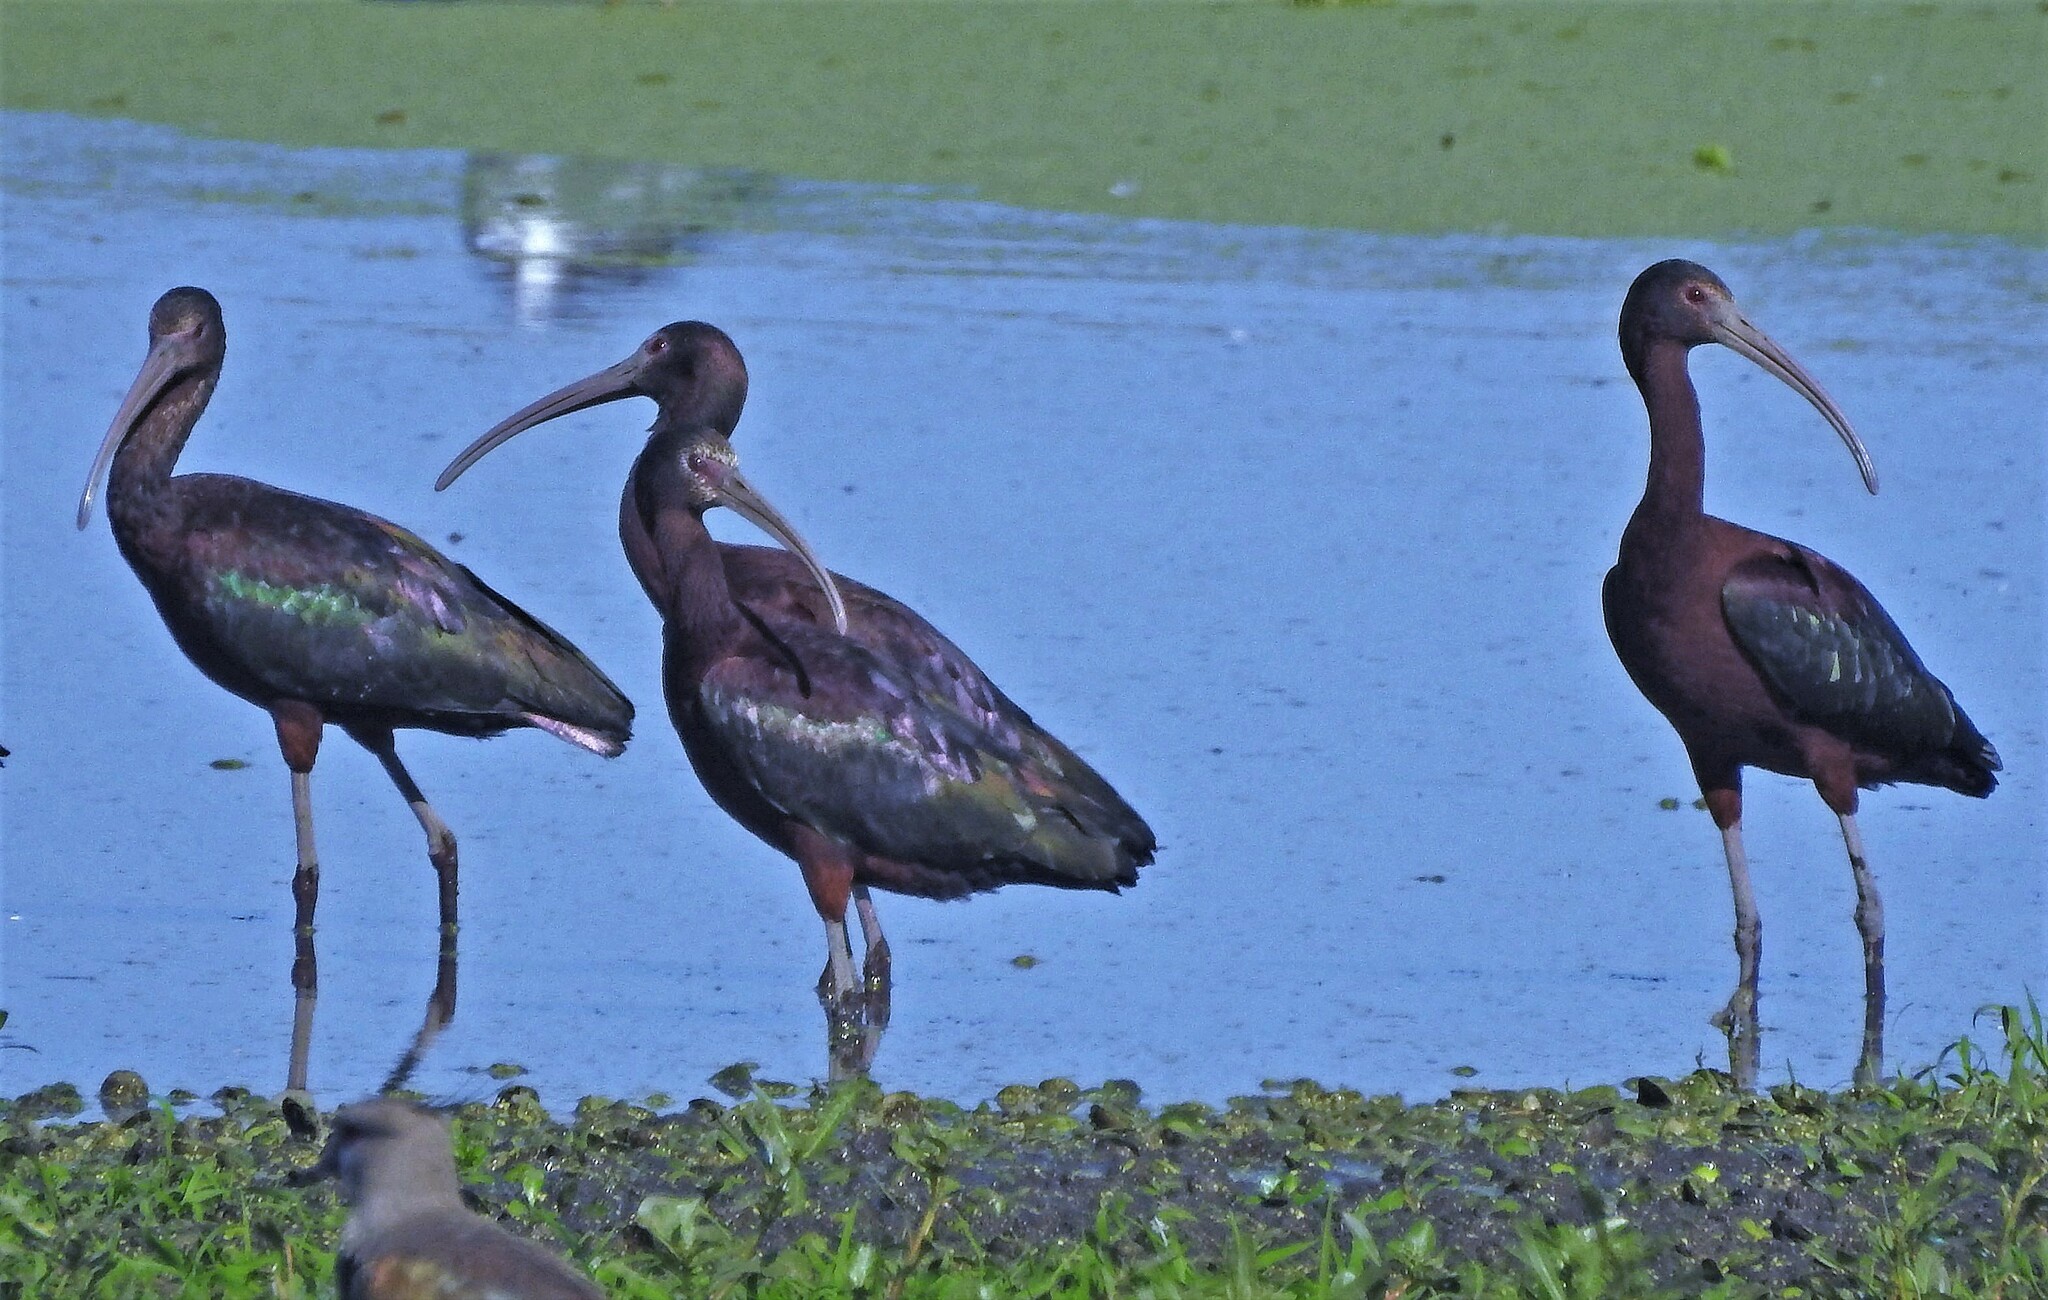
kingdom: Animalia
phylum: Chordata
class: Aves
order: Pelecaniformes
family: Threskiornithidae
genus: Plegadis
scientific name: Plegadis chihi
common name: White-faced ibis
